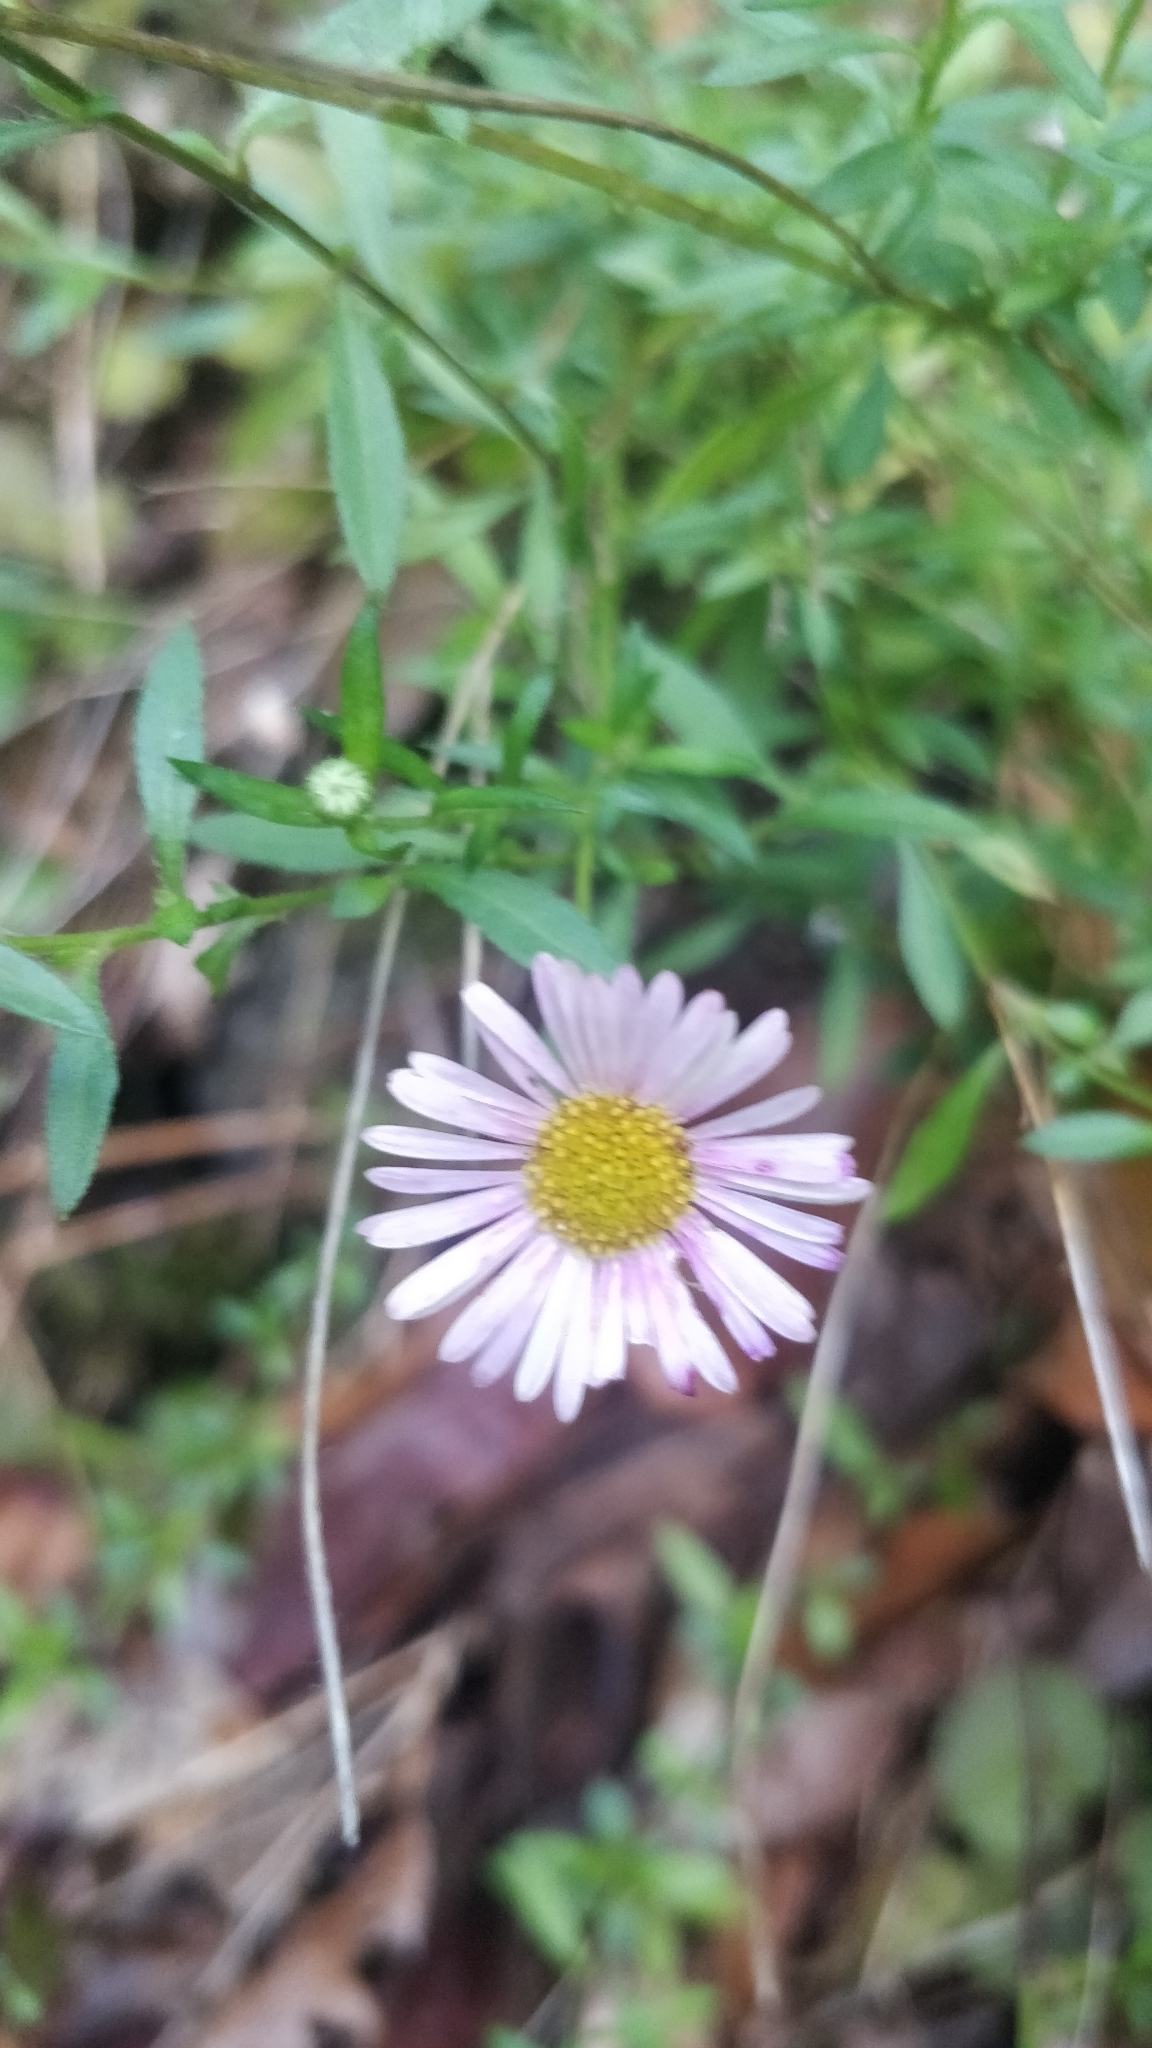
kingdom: Plantae
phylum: Tracheophyta
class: Magnoliopsida
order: Asterales
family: Asteraceae
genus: Erigeron
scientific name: Erigeron karvinskianus
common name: Mexican fleabane
